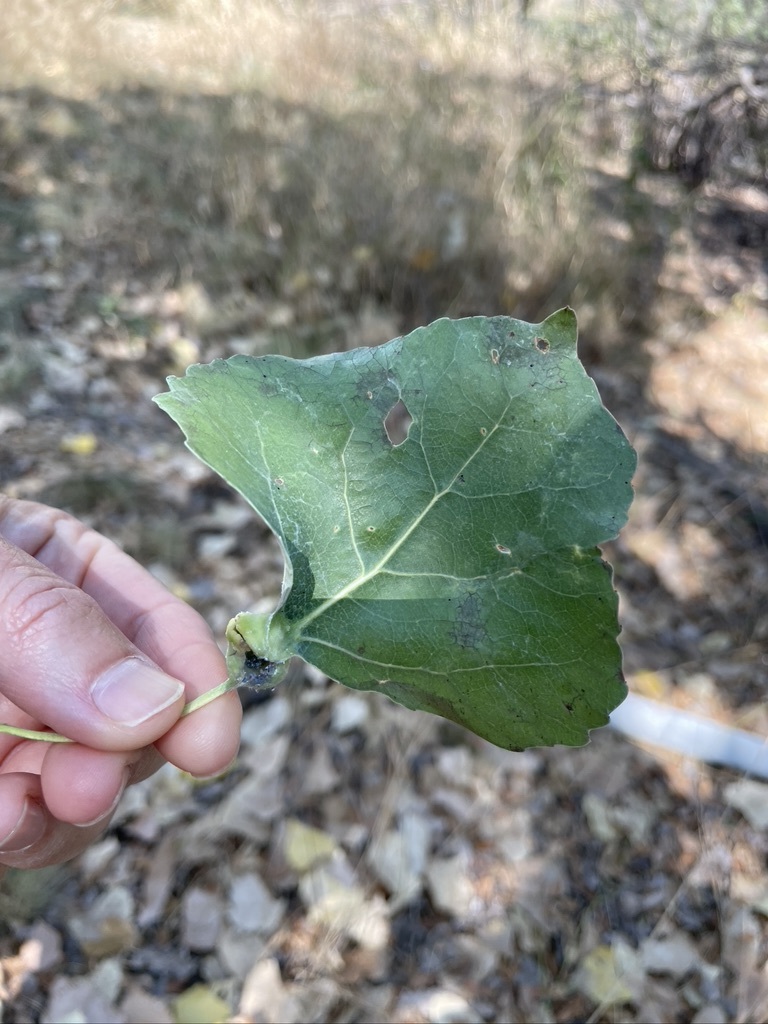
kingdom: Animalia
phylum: Arthropoda
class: Insecta
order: Hemiptera
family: Aphididae
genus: Pemphigus
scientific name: Pemphigus obesinymphae
